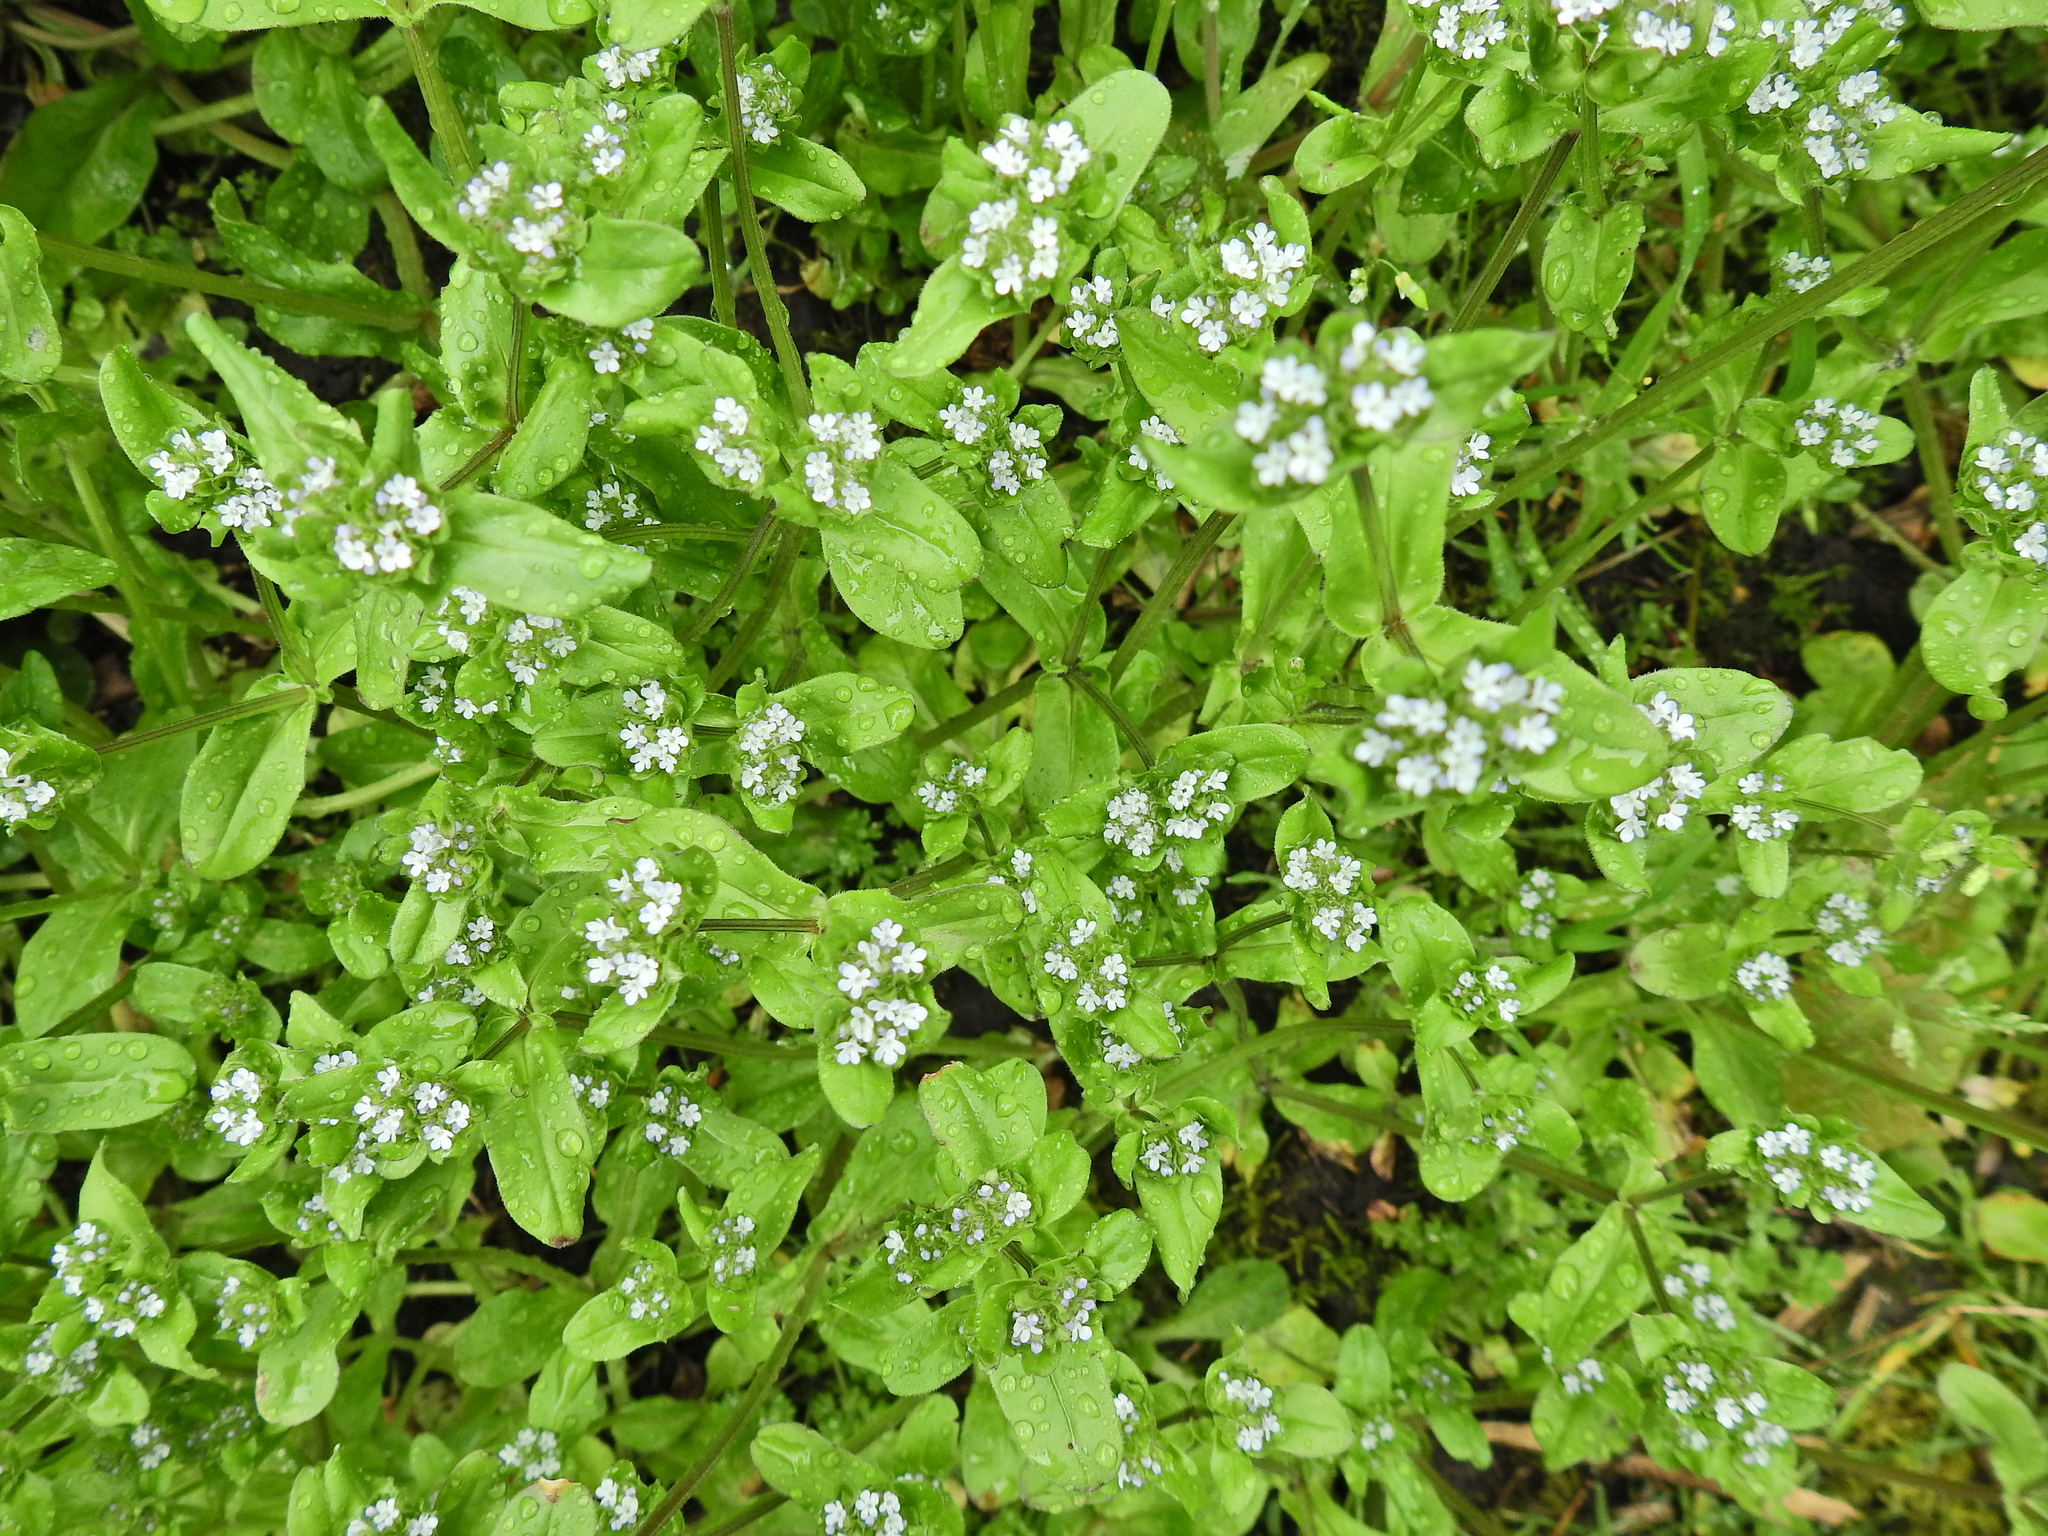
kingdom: Plantae
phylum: Tracheophyta
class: Magnoliopsida
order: Dipsacales
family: Caprifoliaceae
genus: Valerianella
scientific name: Valerianella locusta
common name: Common cornsalad
